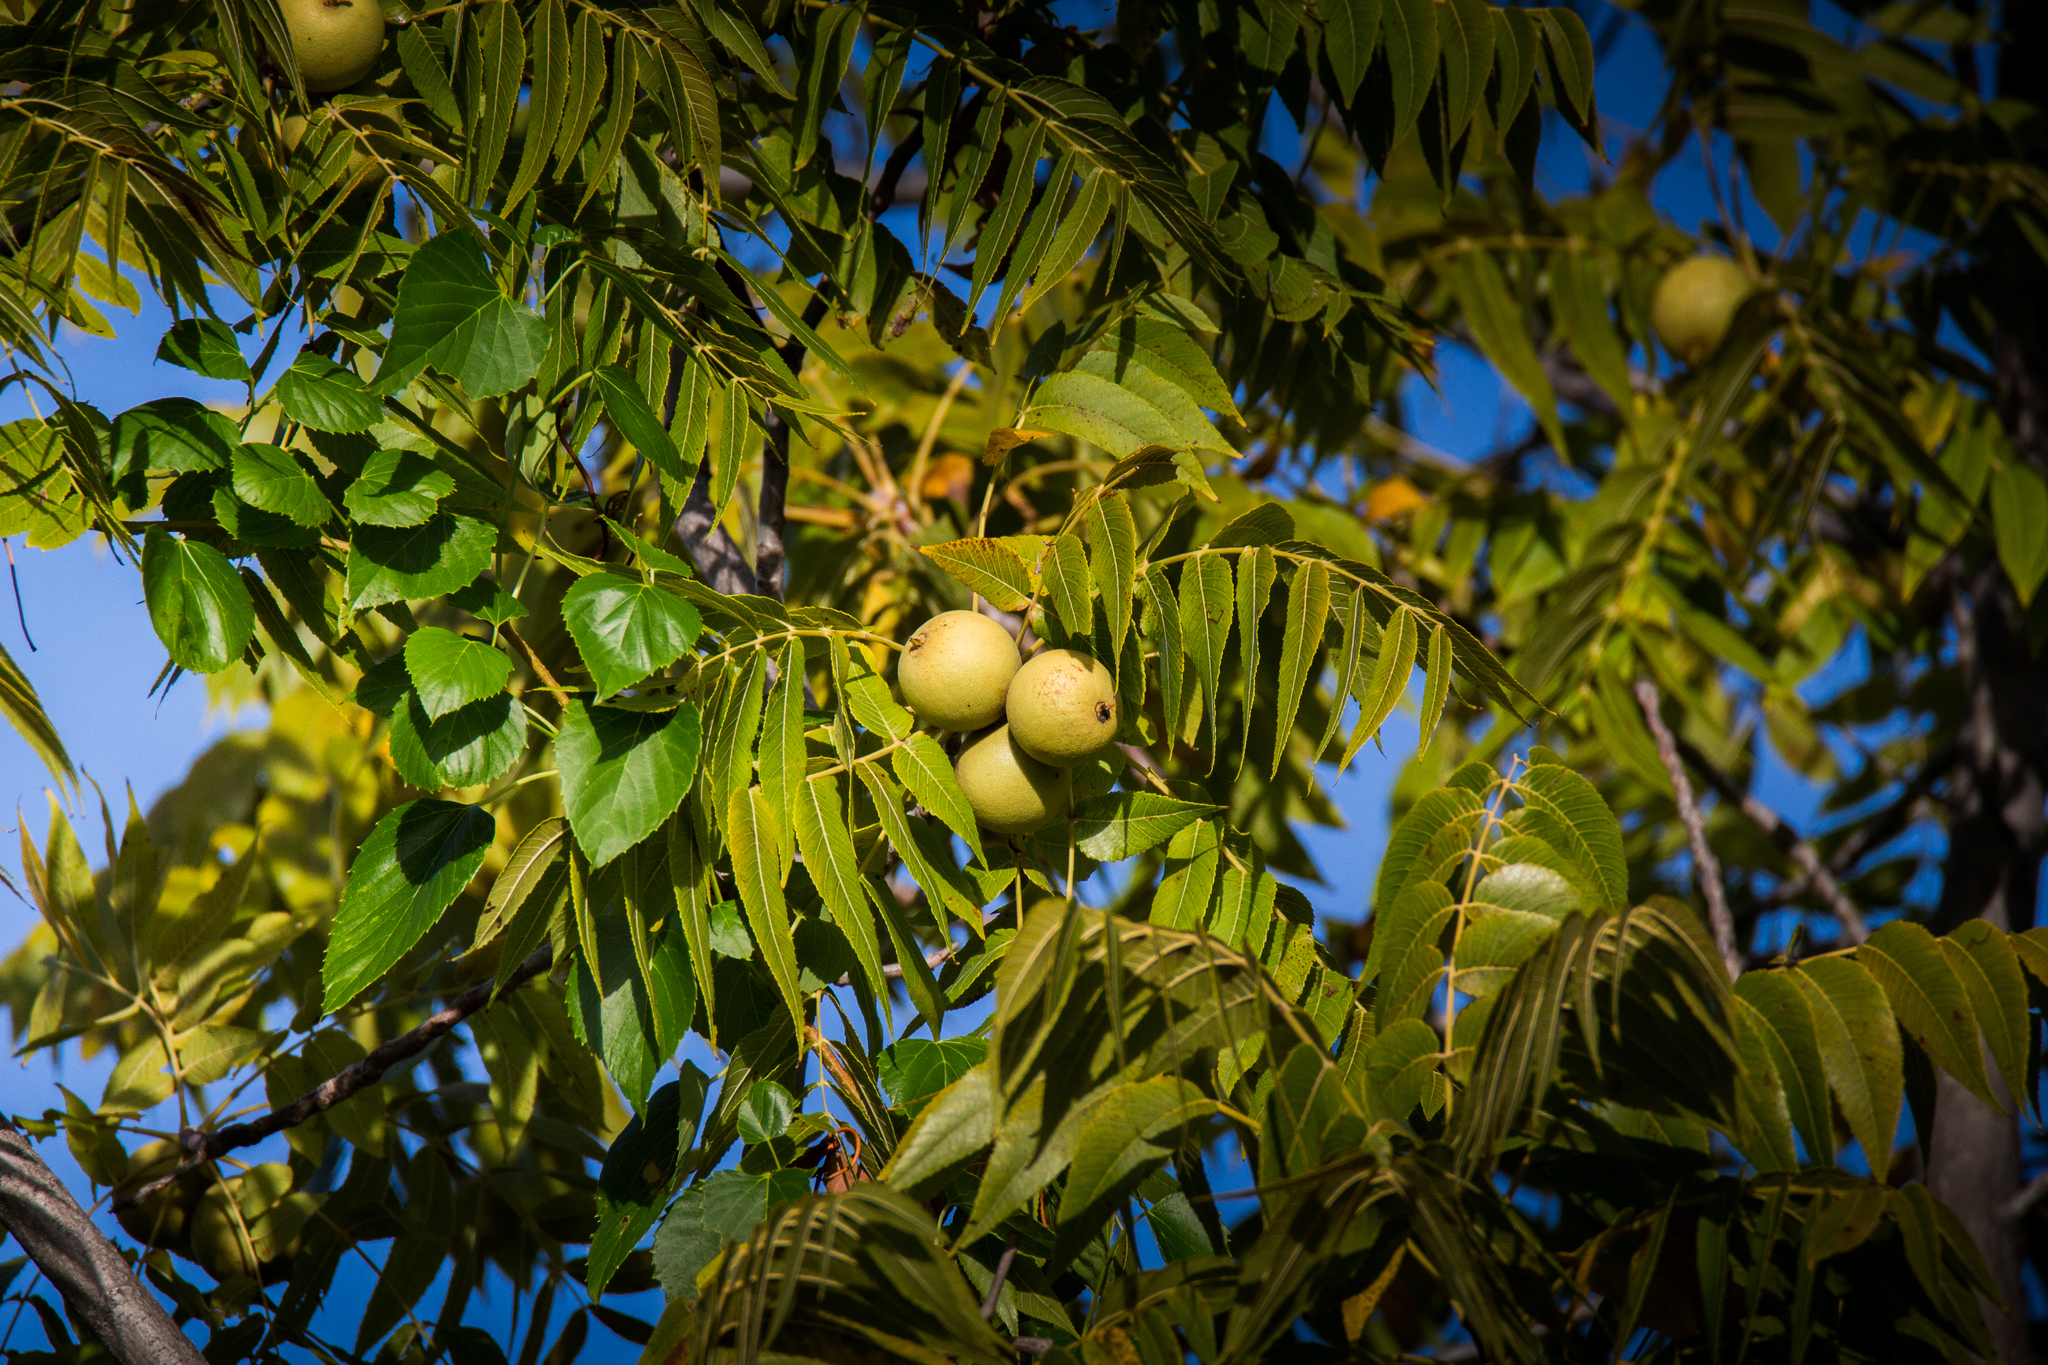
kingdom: Plantae
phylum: Tracheophyta
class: Magnoliopsida
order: Fagales
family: Juglandaceae
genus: Juglans
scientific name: Juglans nigra
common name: Black walnut
